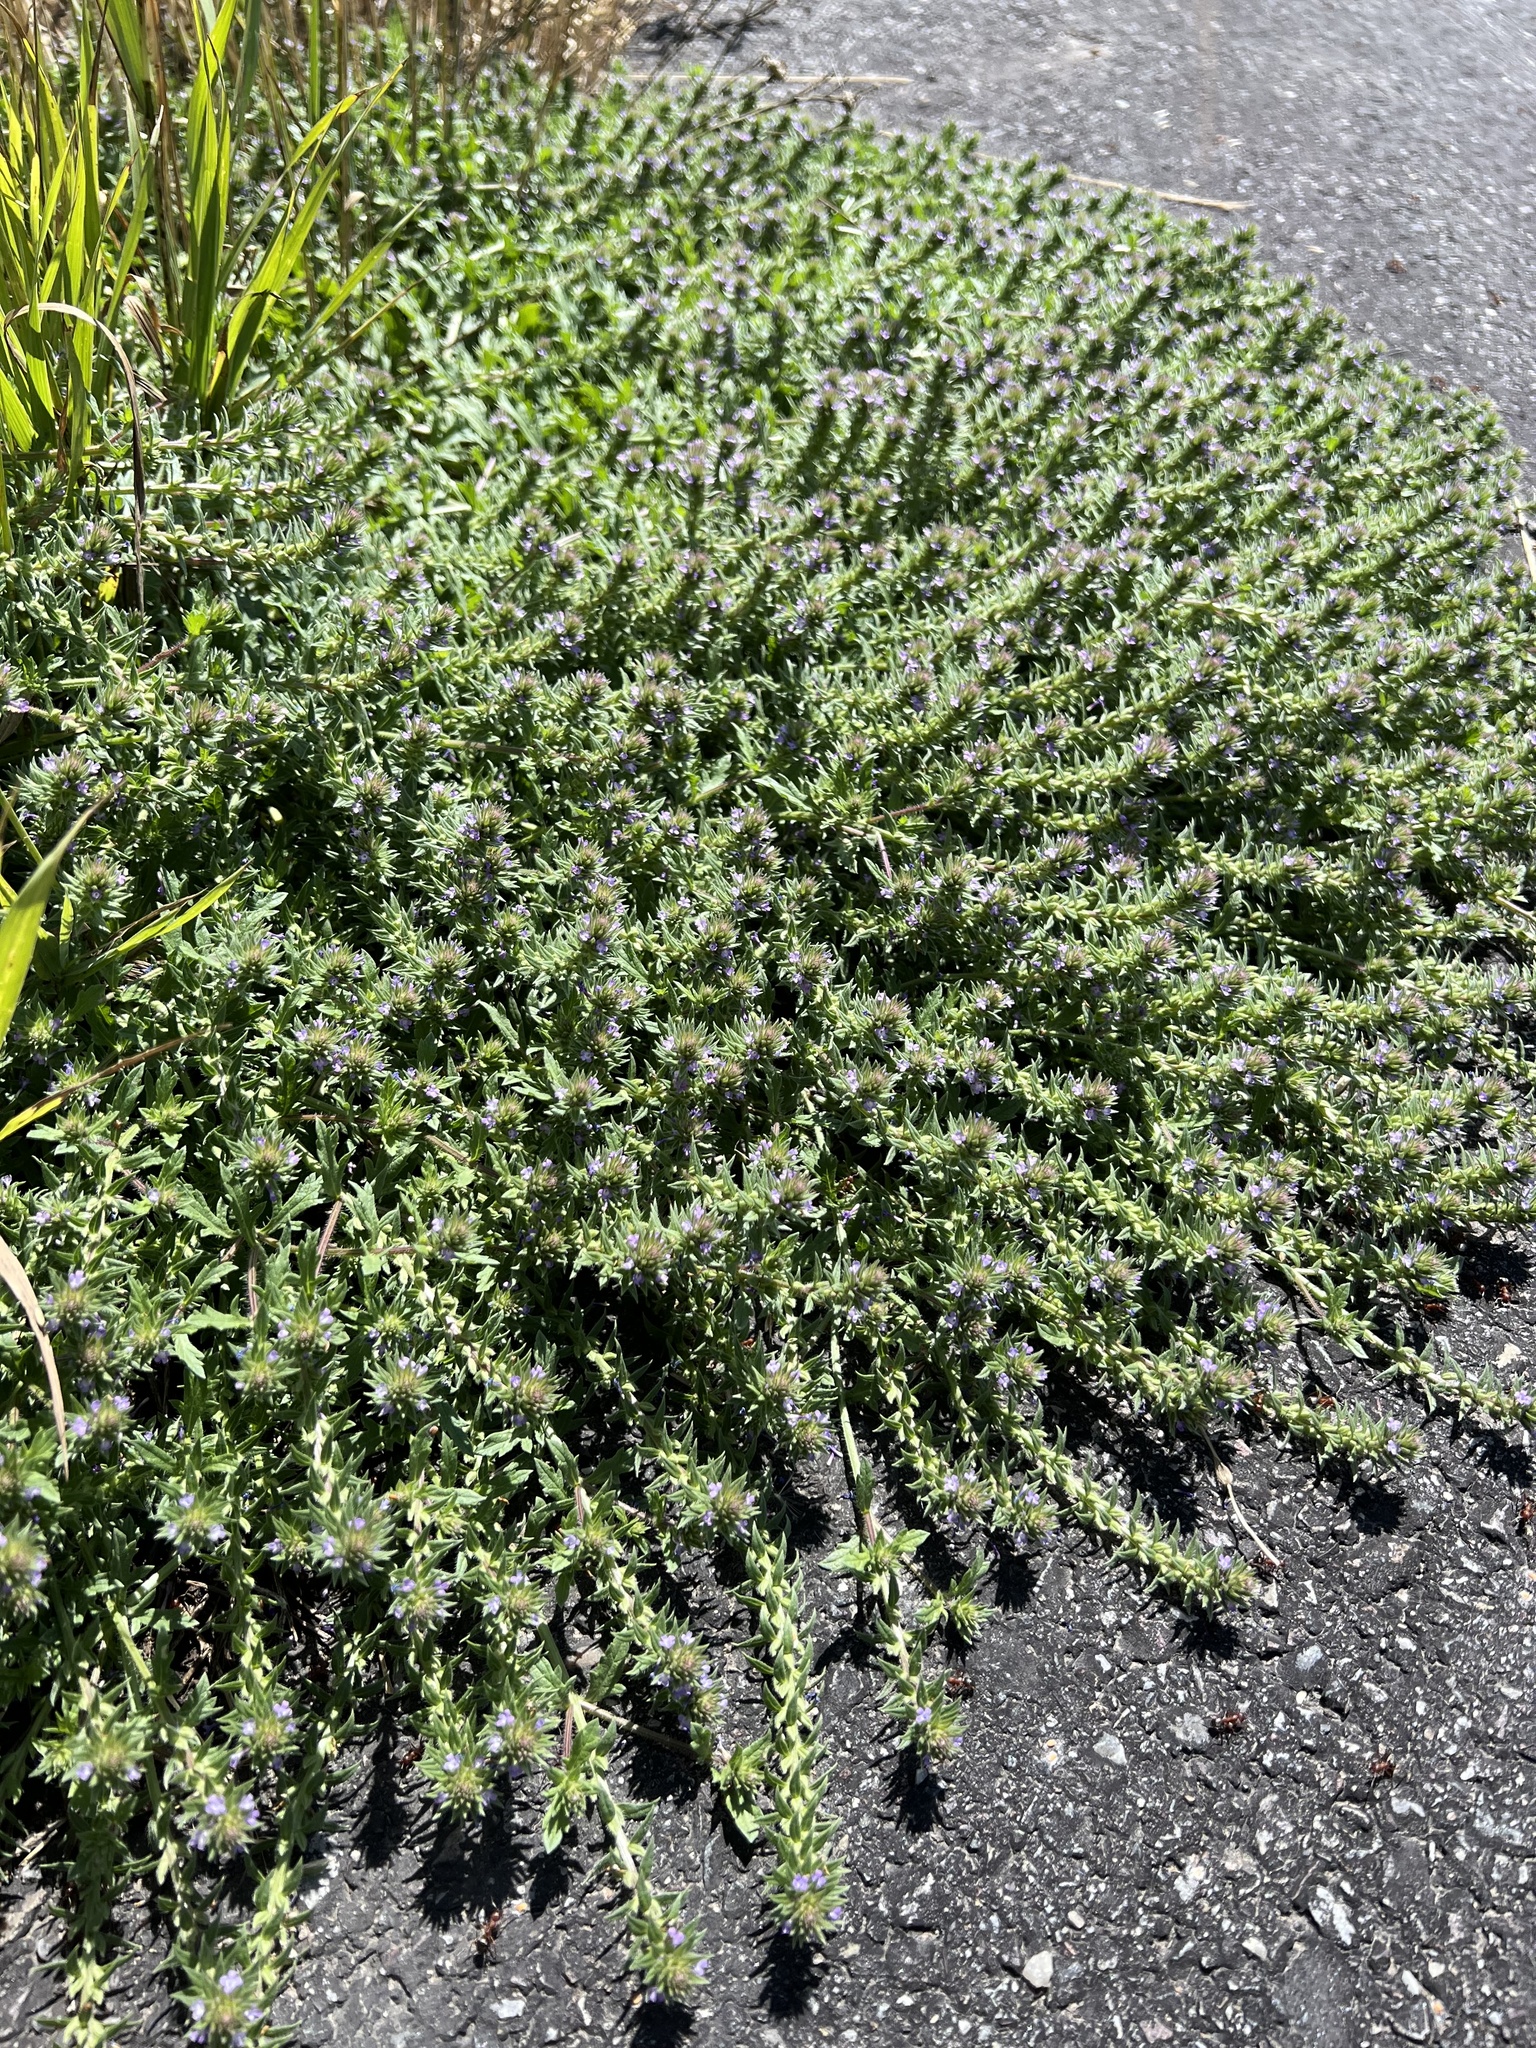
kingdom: Plantae
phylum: Tracheophyta
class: Magnoliopsida
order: Lamiales
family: Verbenaceae
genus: Verbena
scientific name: Verbena bracteata
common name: Bracted vervain
